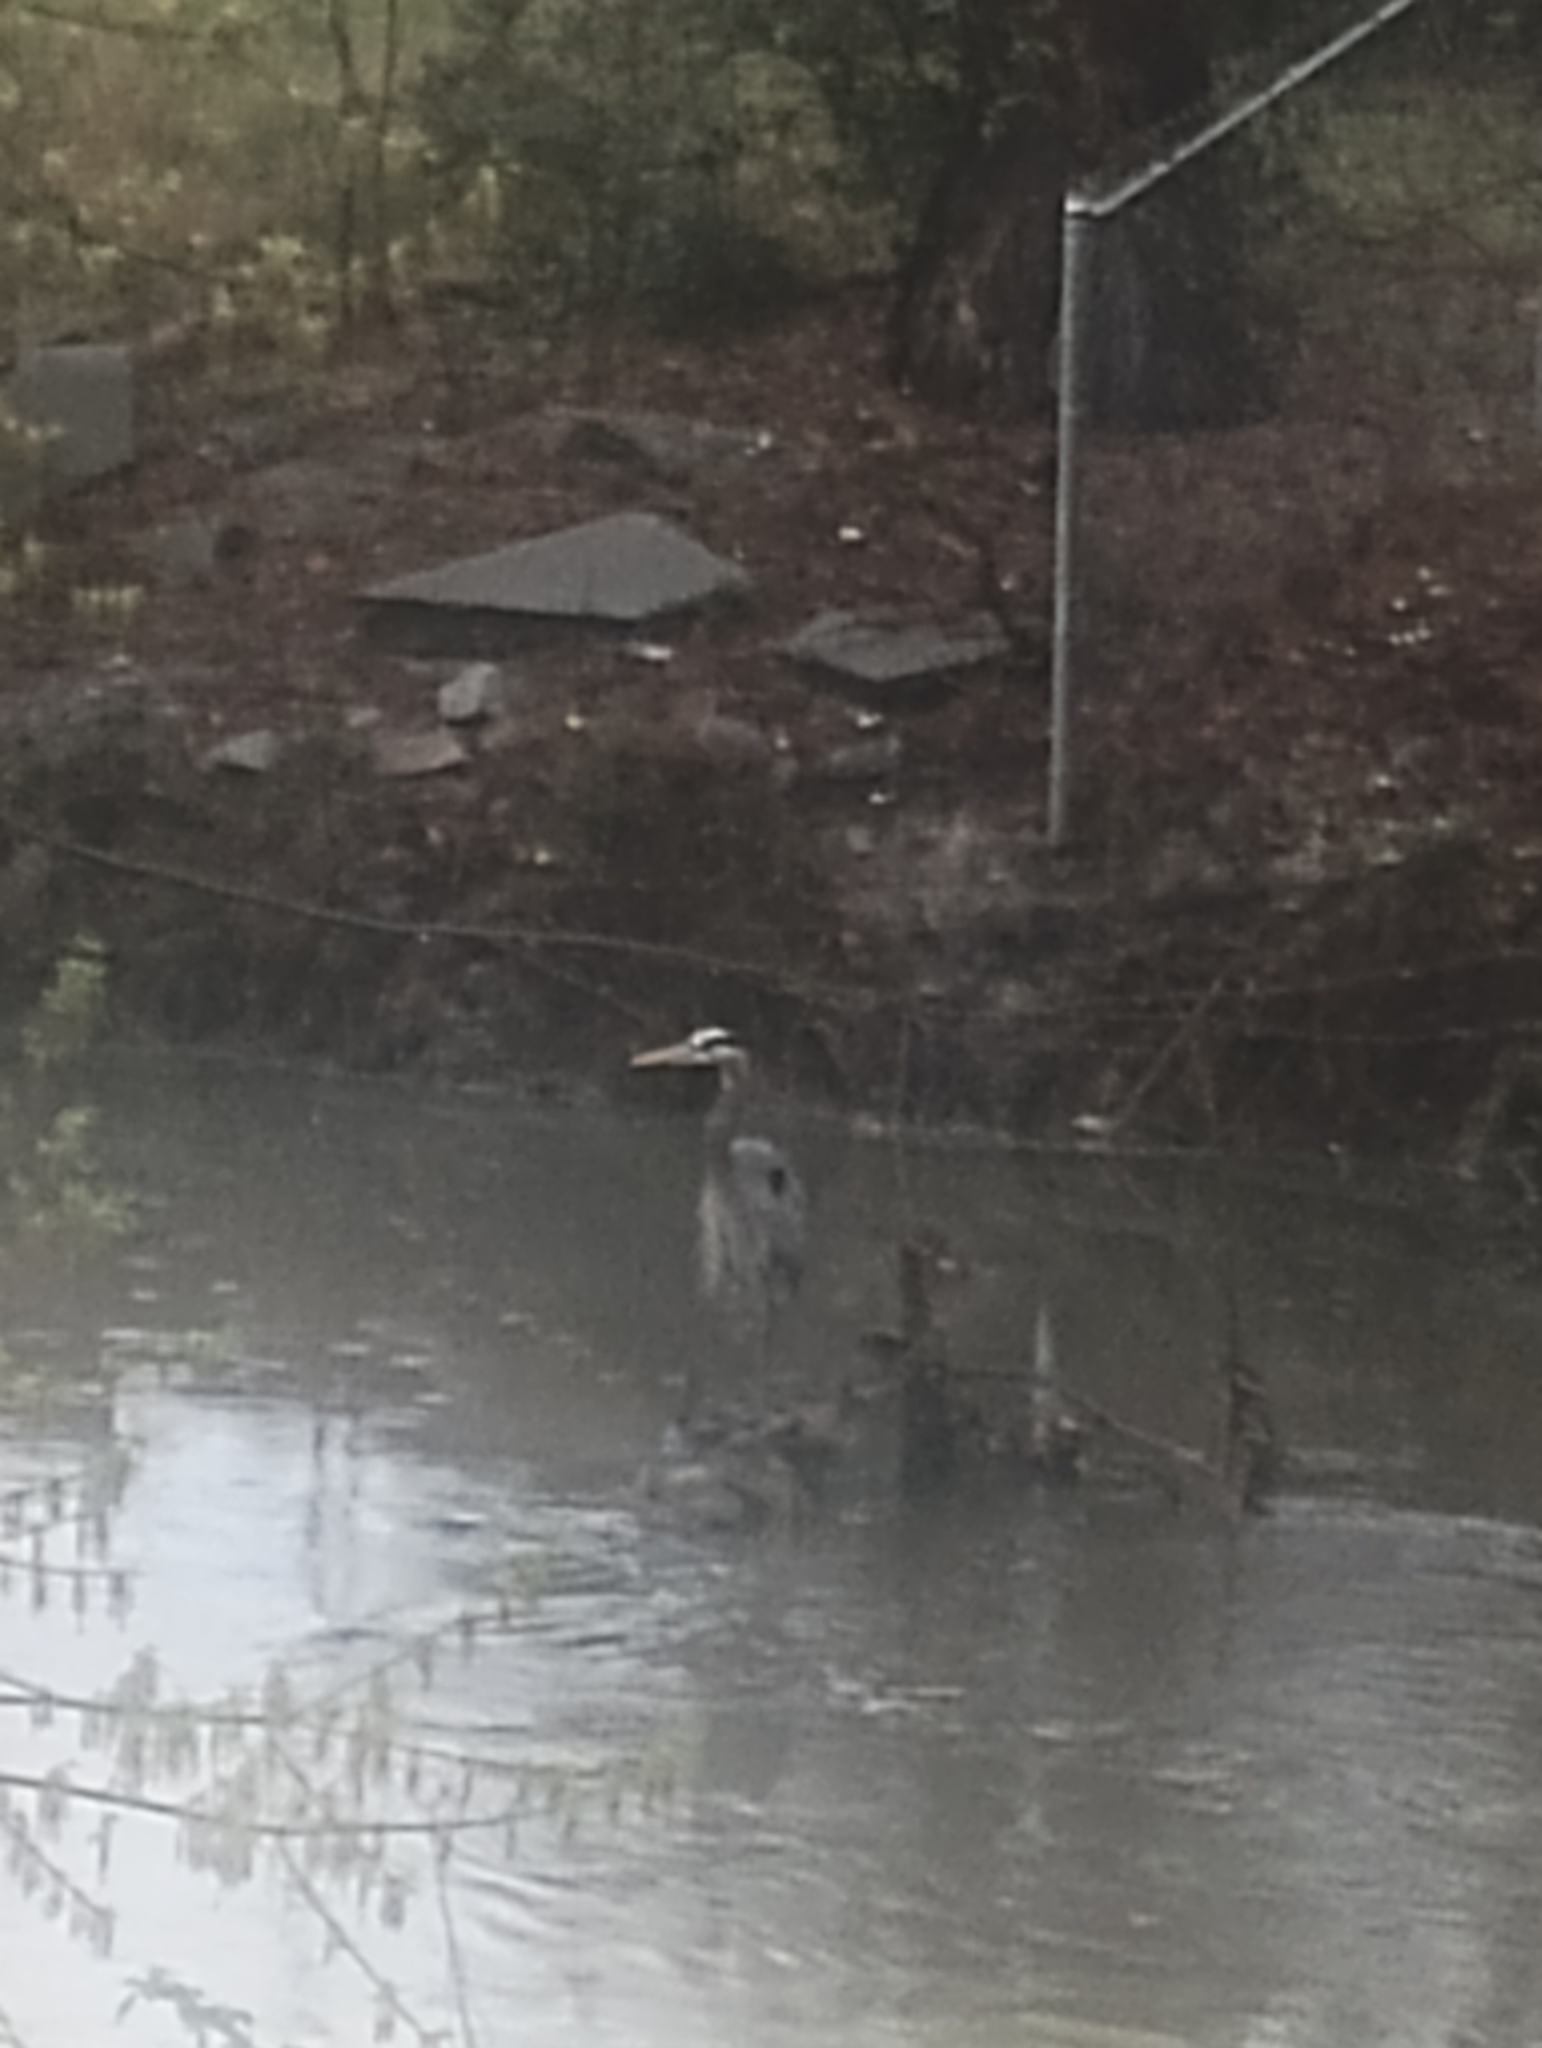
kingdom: Animalia
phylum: Chordata
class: Aves
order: Pelecaniformes
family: Ardeidae
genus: Ardea
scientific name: Ardea herodias
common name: Great blue heron
